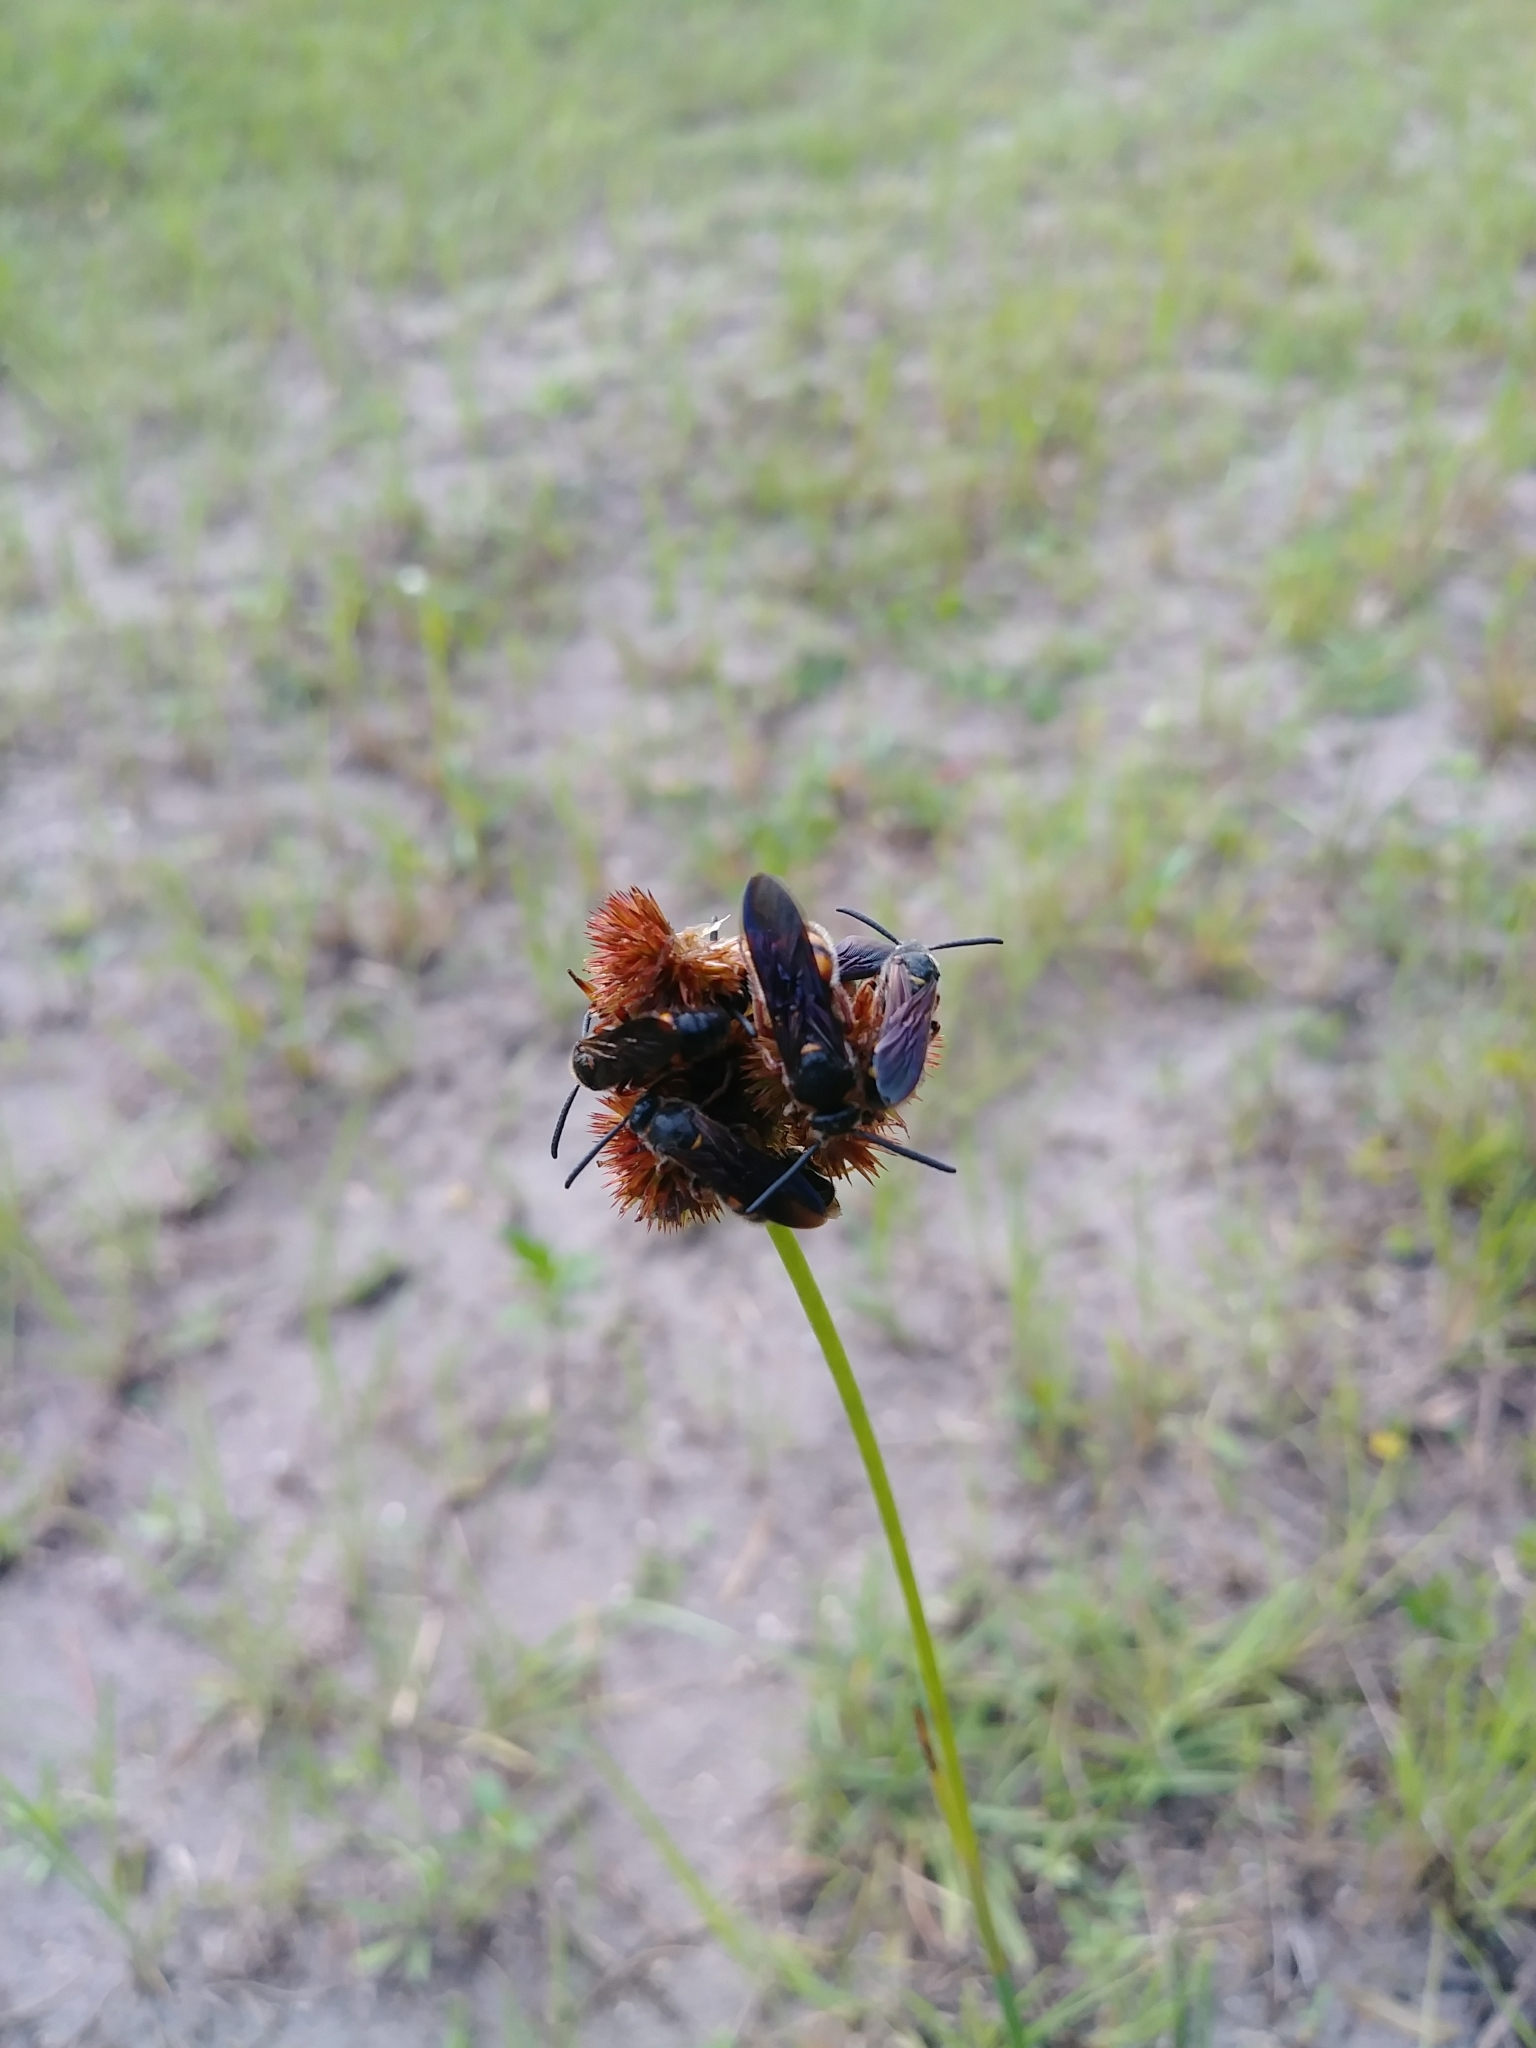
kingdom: Animalia
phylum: Arthropoda
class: Insecta
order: Hymenoptera
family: Scoliidae
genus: Scolia
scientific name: Scolia nobilitata
